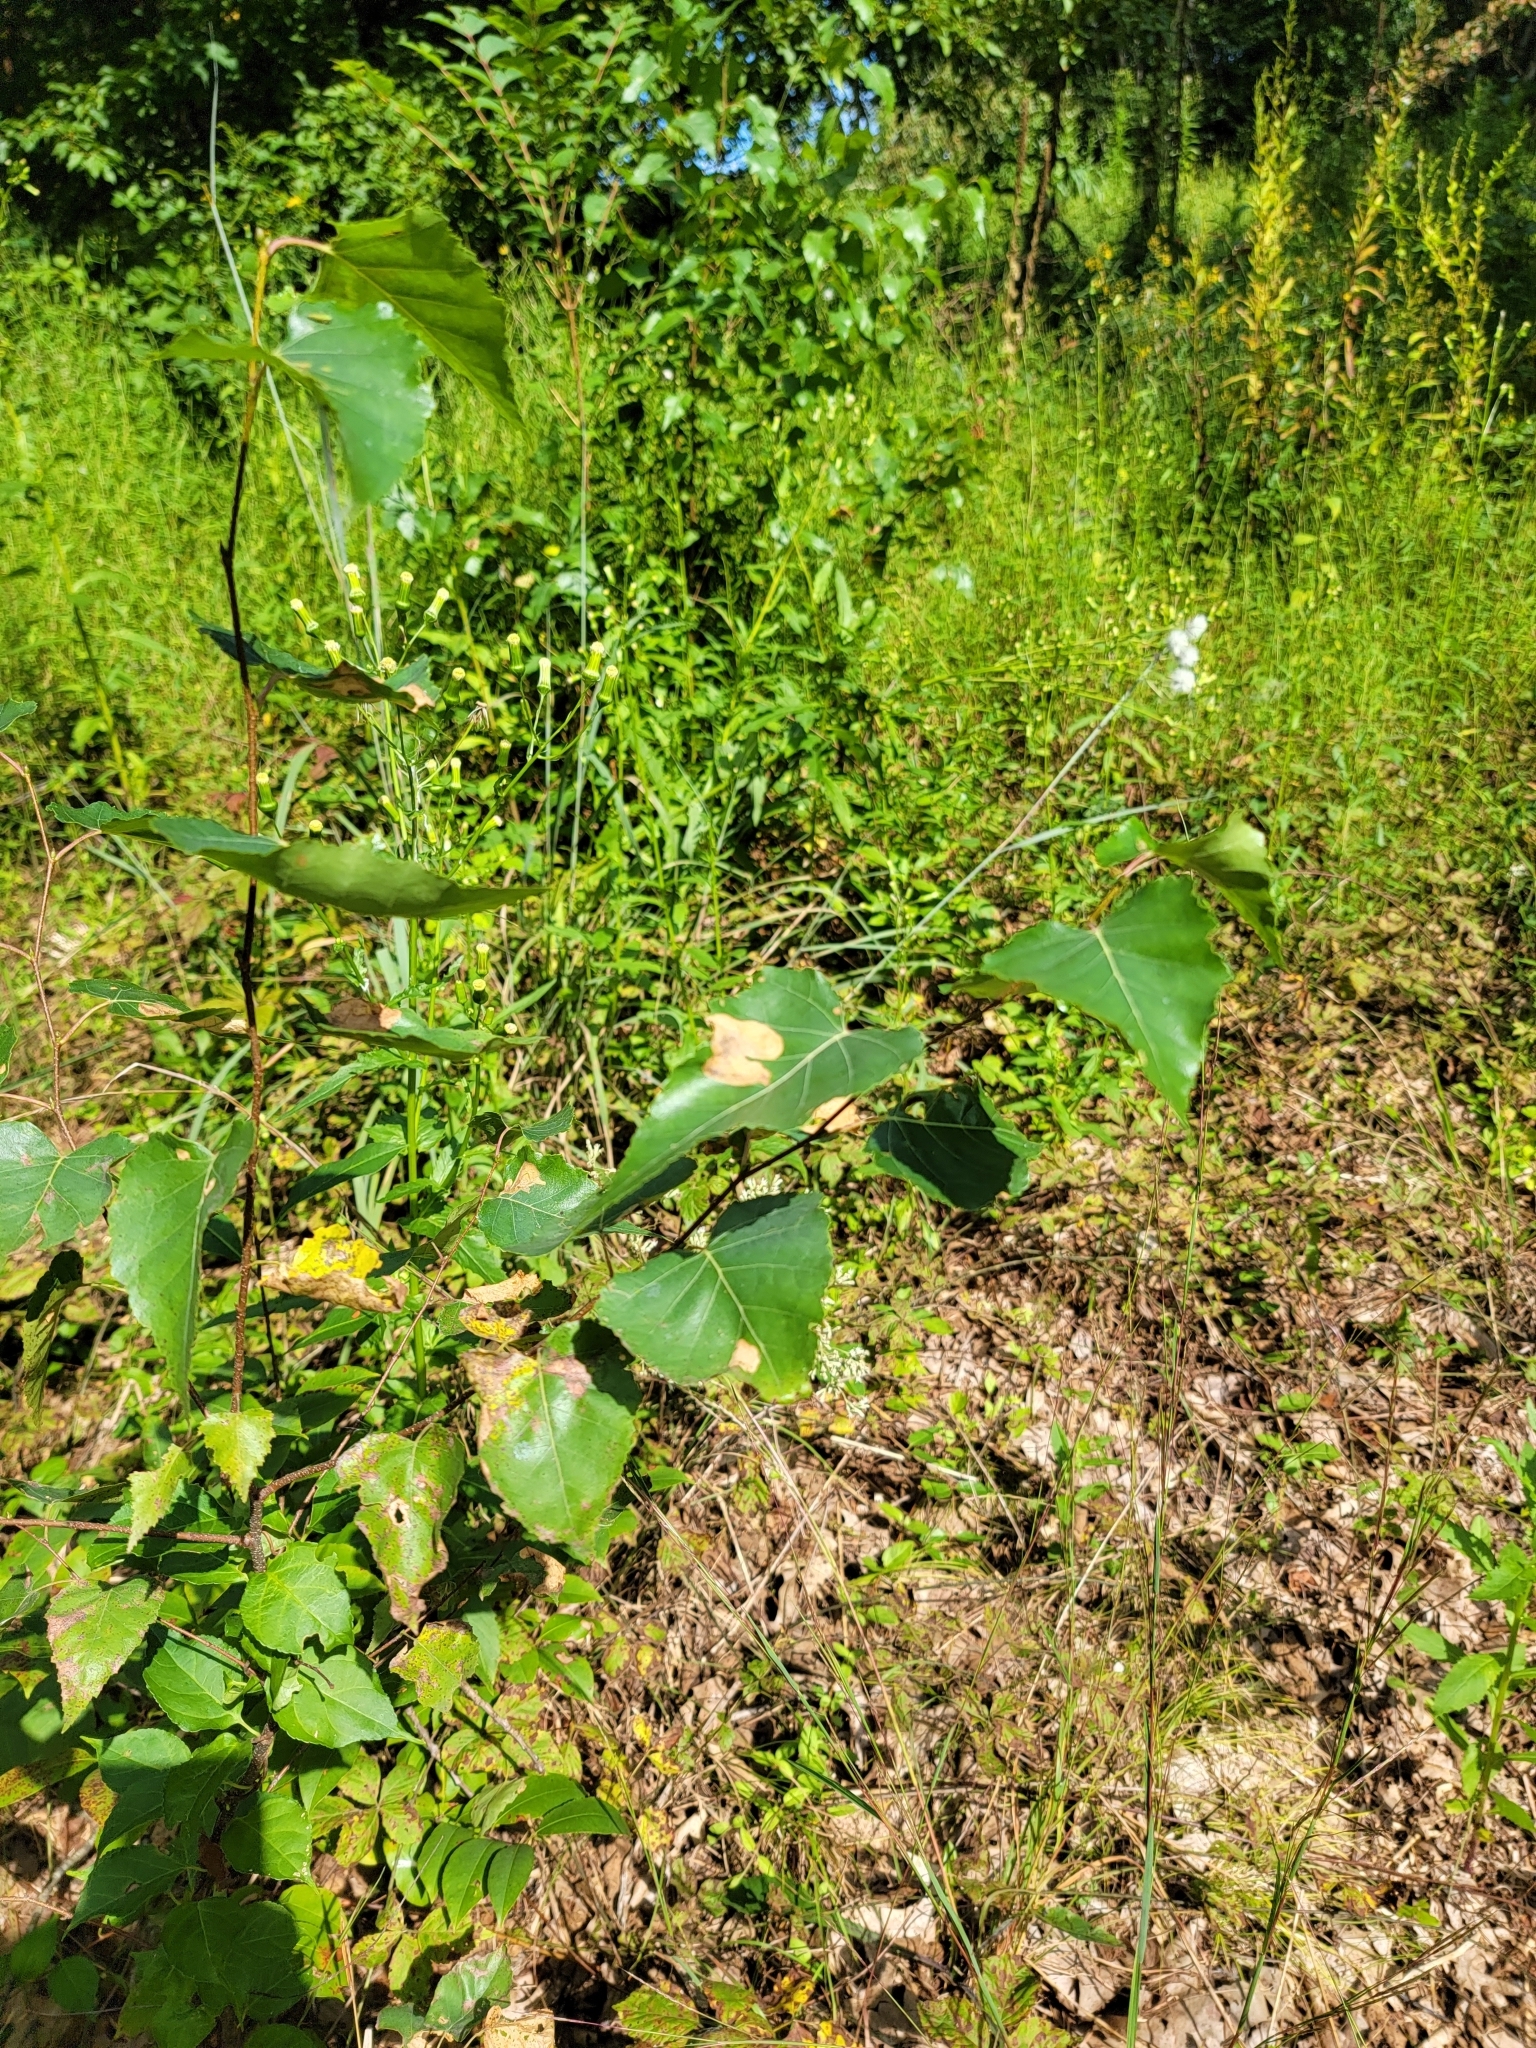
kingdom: Plantae
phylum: Tracheophyta
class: Magnoliopsida
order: Fagales
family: Betulaceae
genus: Betula
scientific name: Betula populifolia
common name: Fire birch
